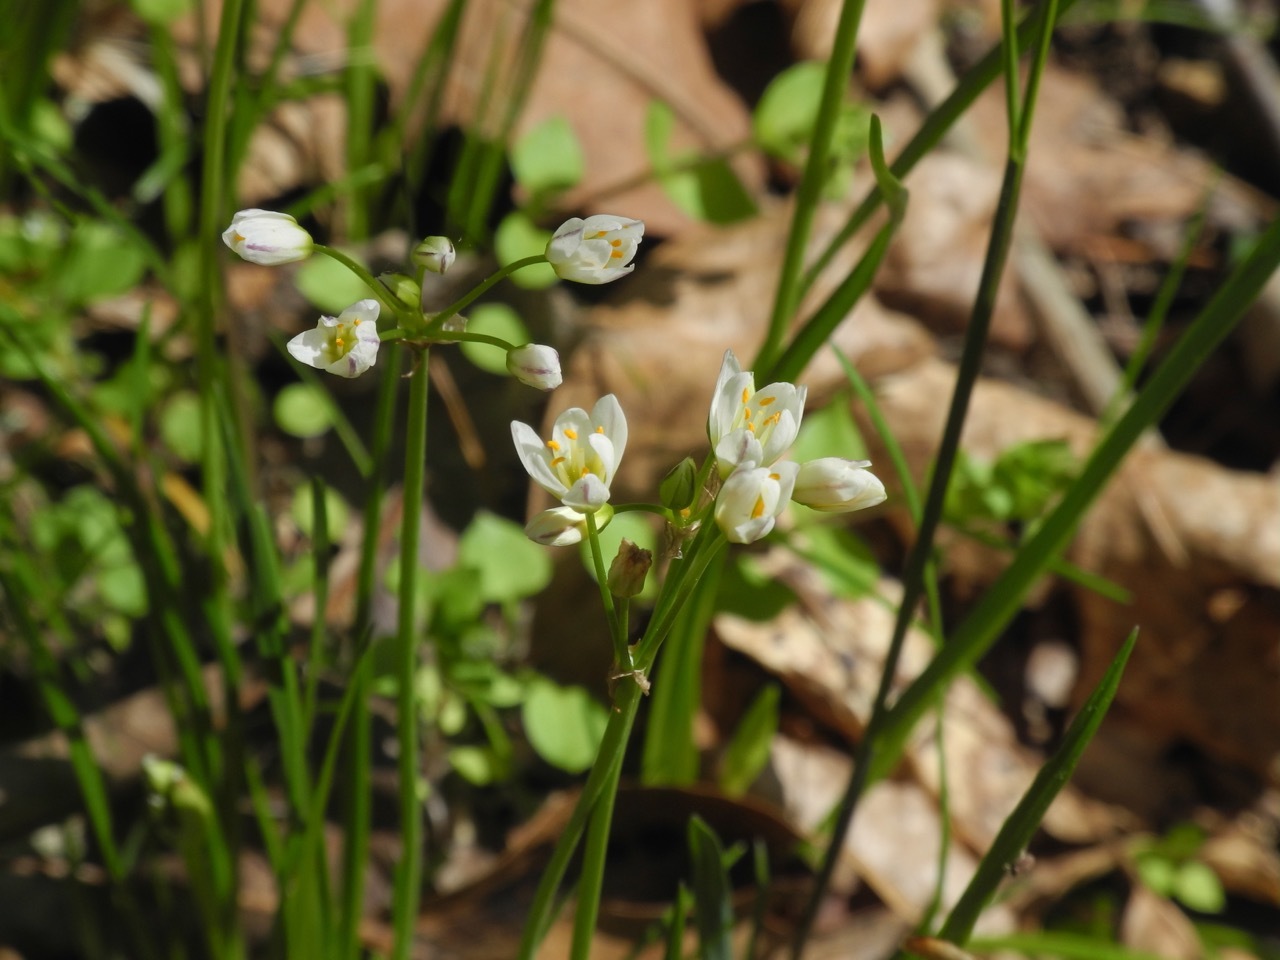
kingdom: Plantae
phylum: Tracheophyta
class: Liliopsida
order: Asparagales
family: Amaryllidaceae
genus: Nothoscordum
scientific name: Nothoscordum bivalve
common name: Crow-poison
